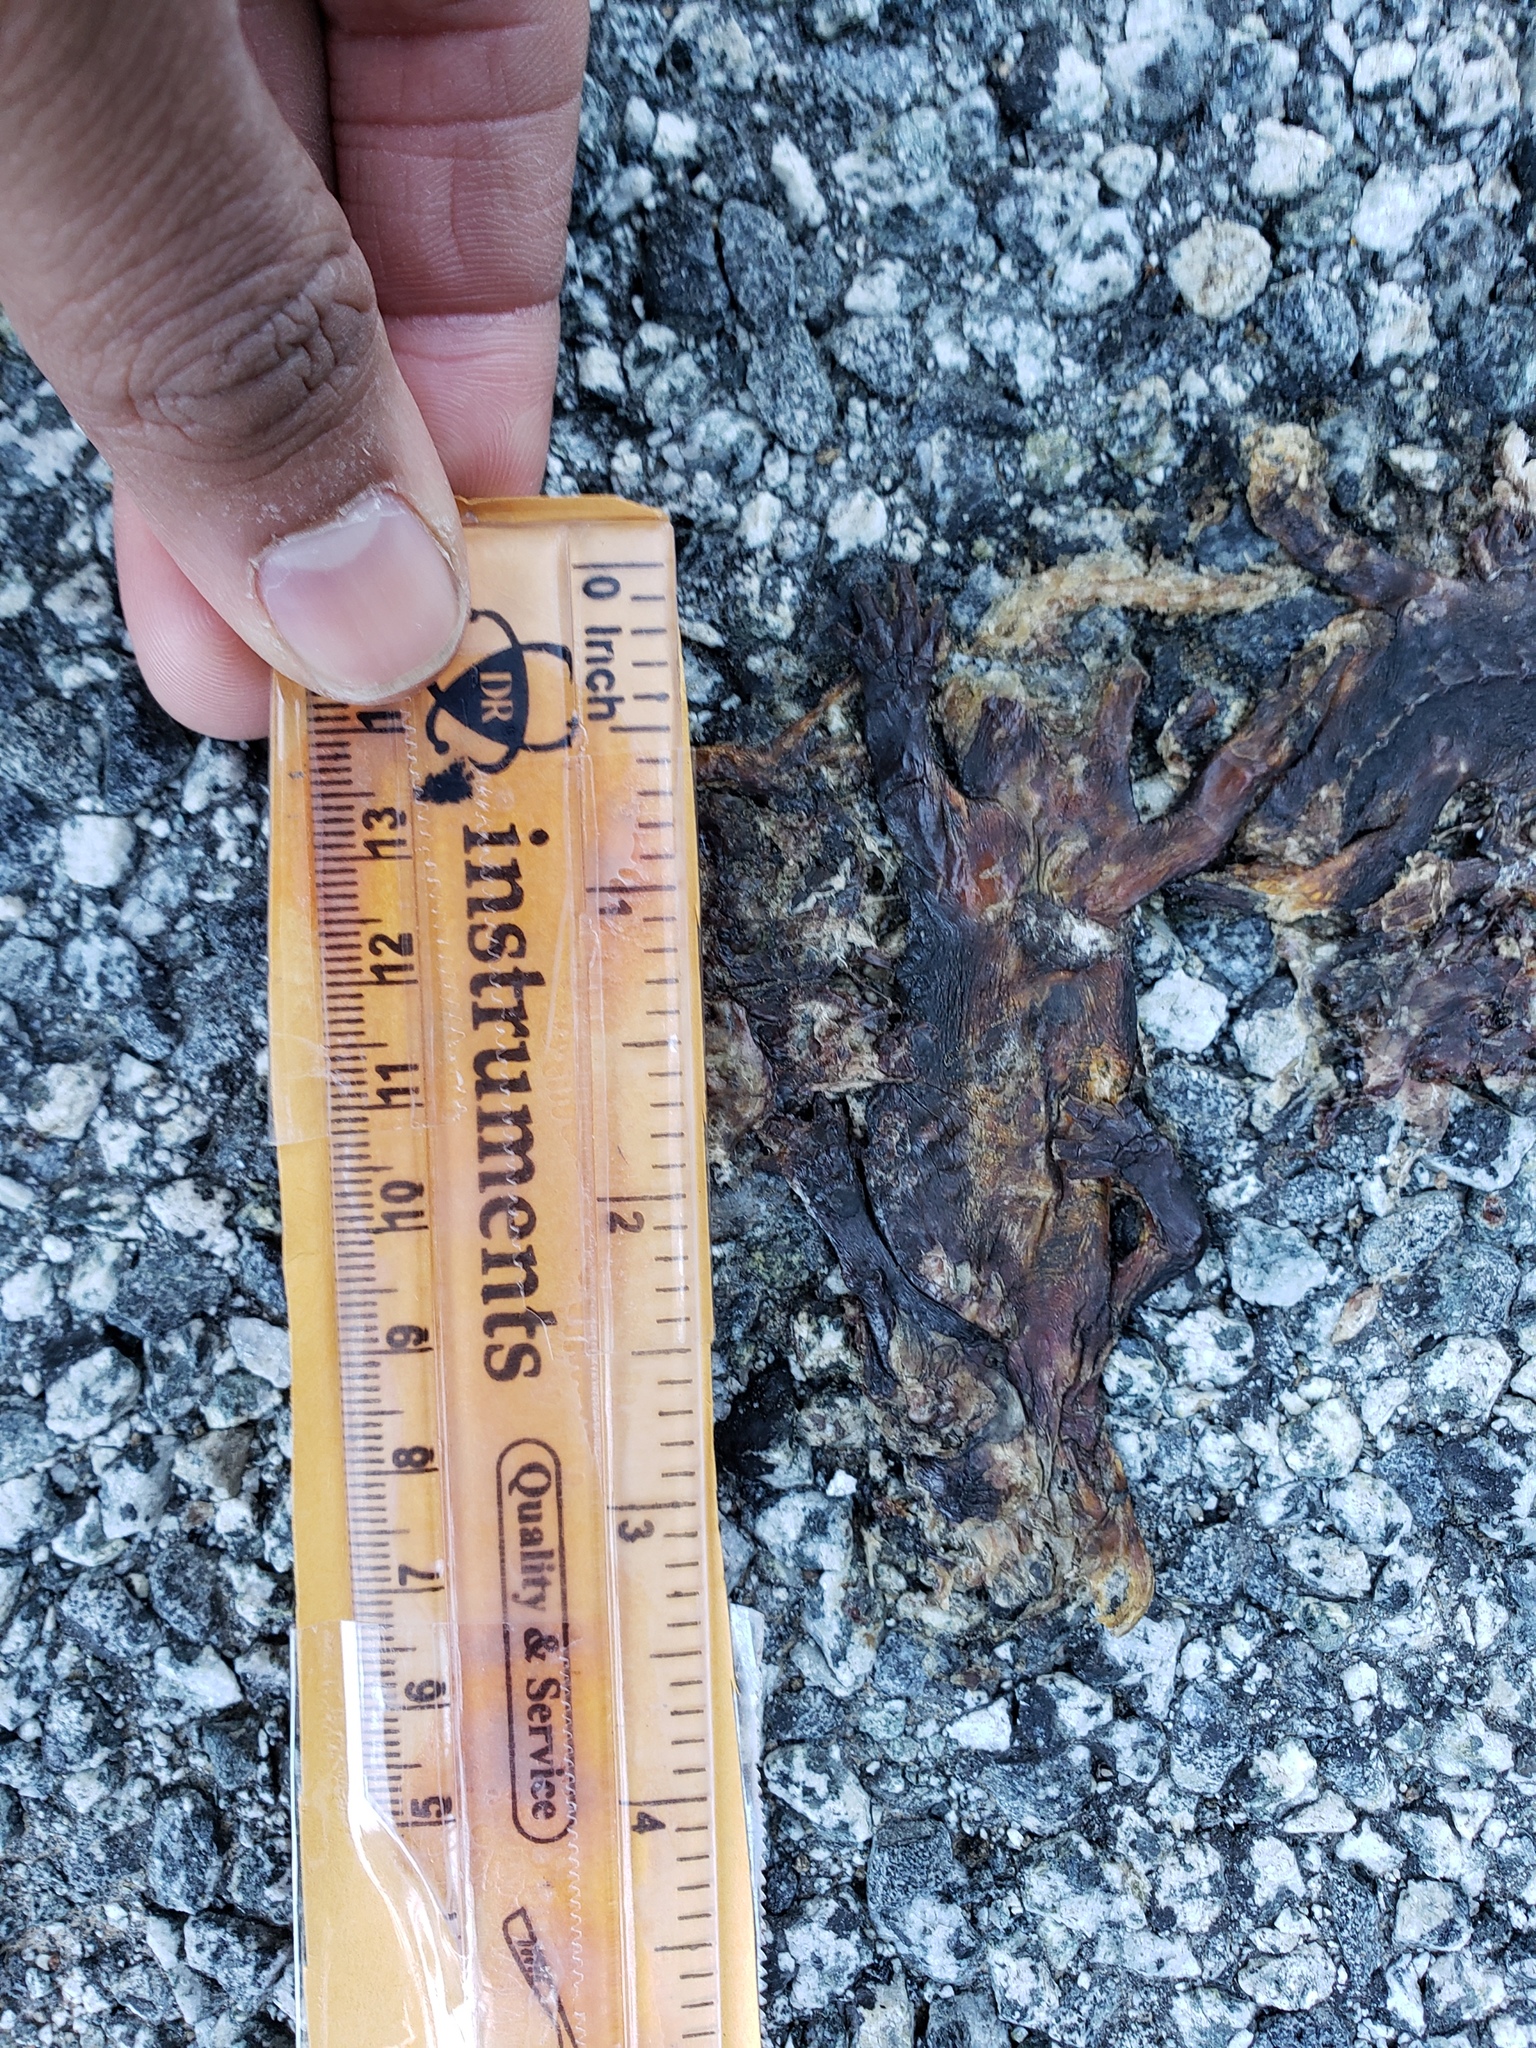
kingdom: Animalia
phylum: Chordata
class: Amphibia
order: Caudata
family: Salamandridae
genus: Taricha
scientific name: Taricha
